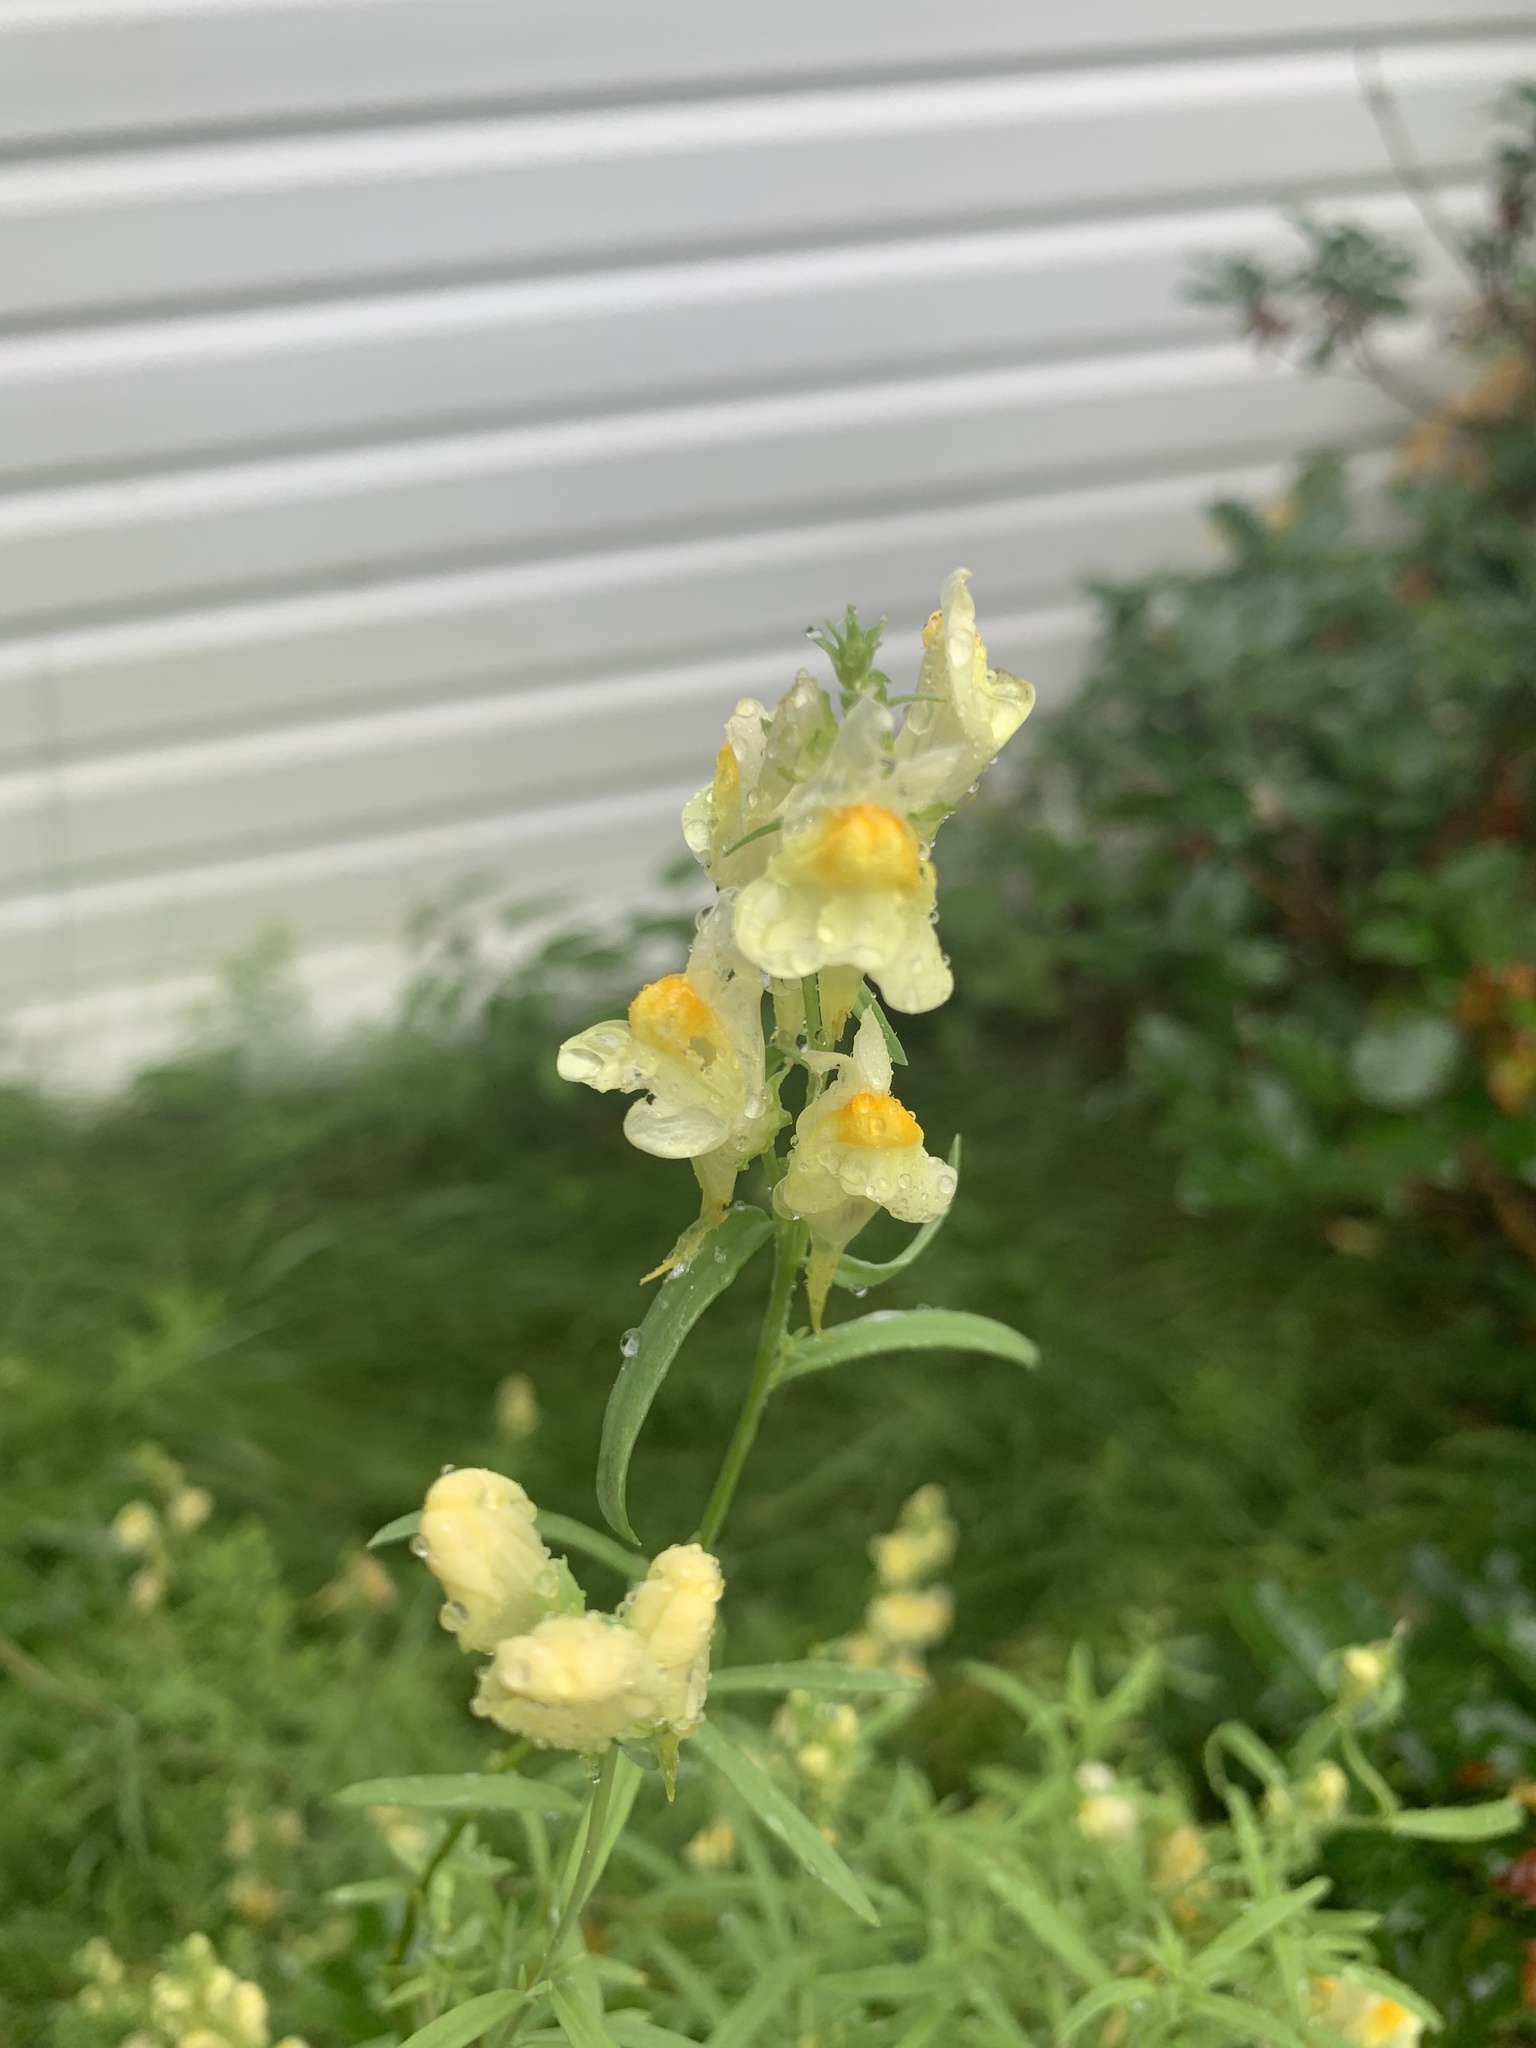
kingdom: Plantae
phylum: Tracheophyta
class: Magnoliopsida
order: Lamiales
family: Plantaginaceae
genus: Linaria
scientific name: Linaria vulgaris
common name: Butter and eggs
